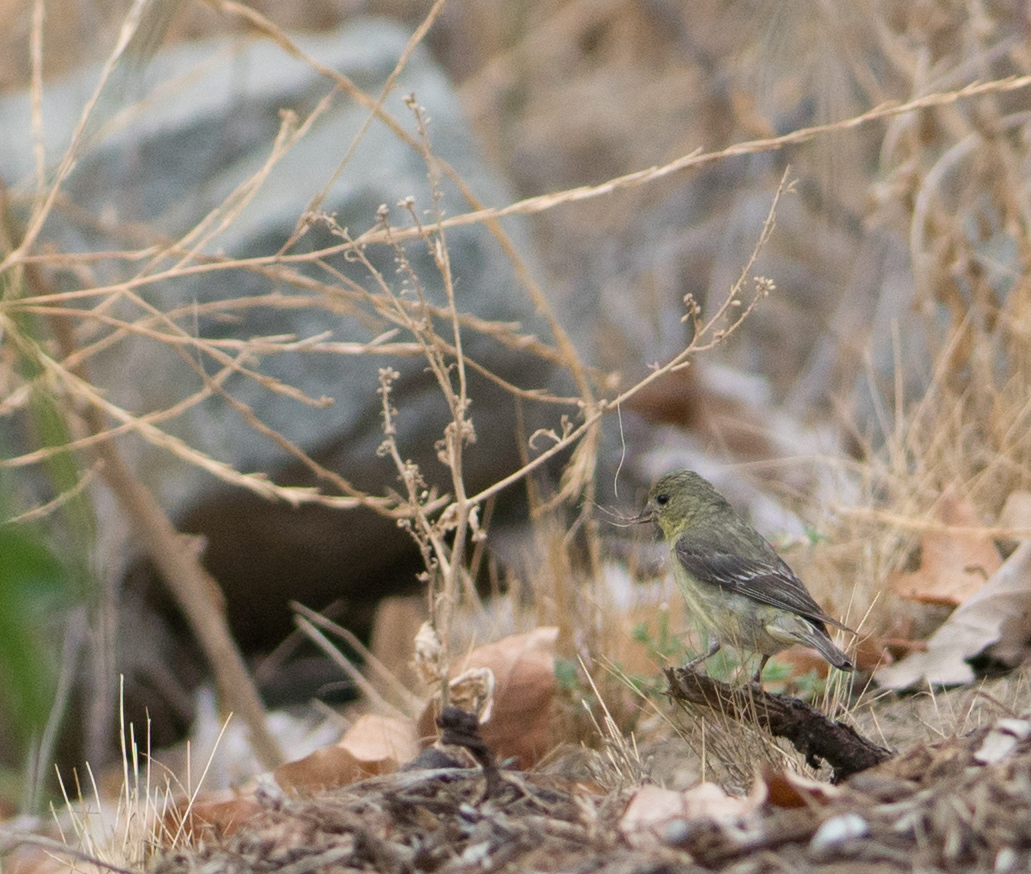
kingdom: Animalia
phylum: Chordata
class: Aves
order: Passeriformes
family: Fringillidae
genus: Spinus
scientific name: Spinus psaltria
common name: Lesser goldfinch
